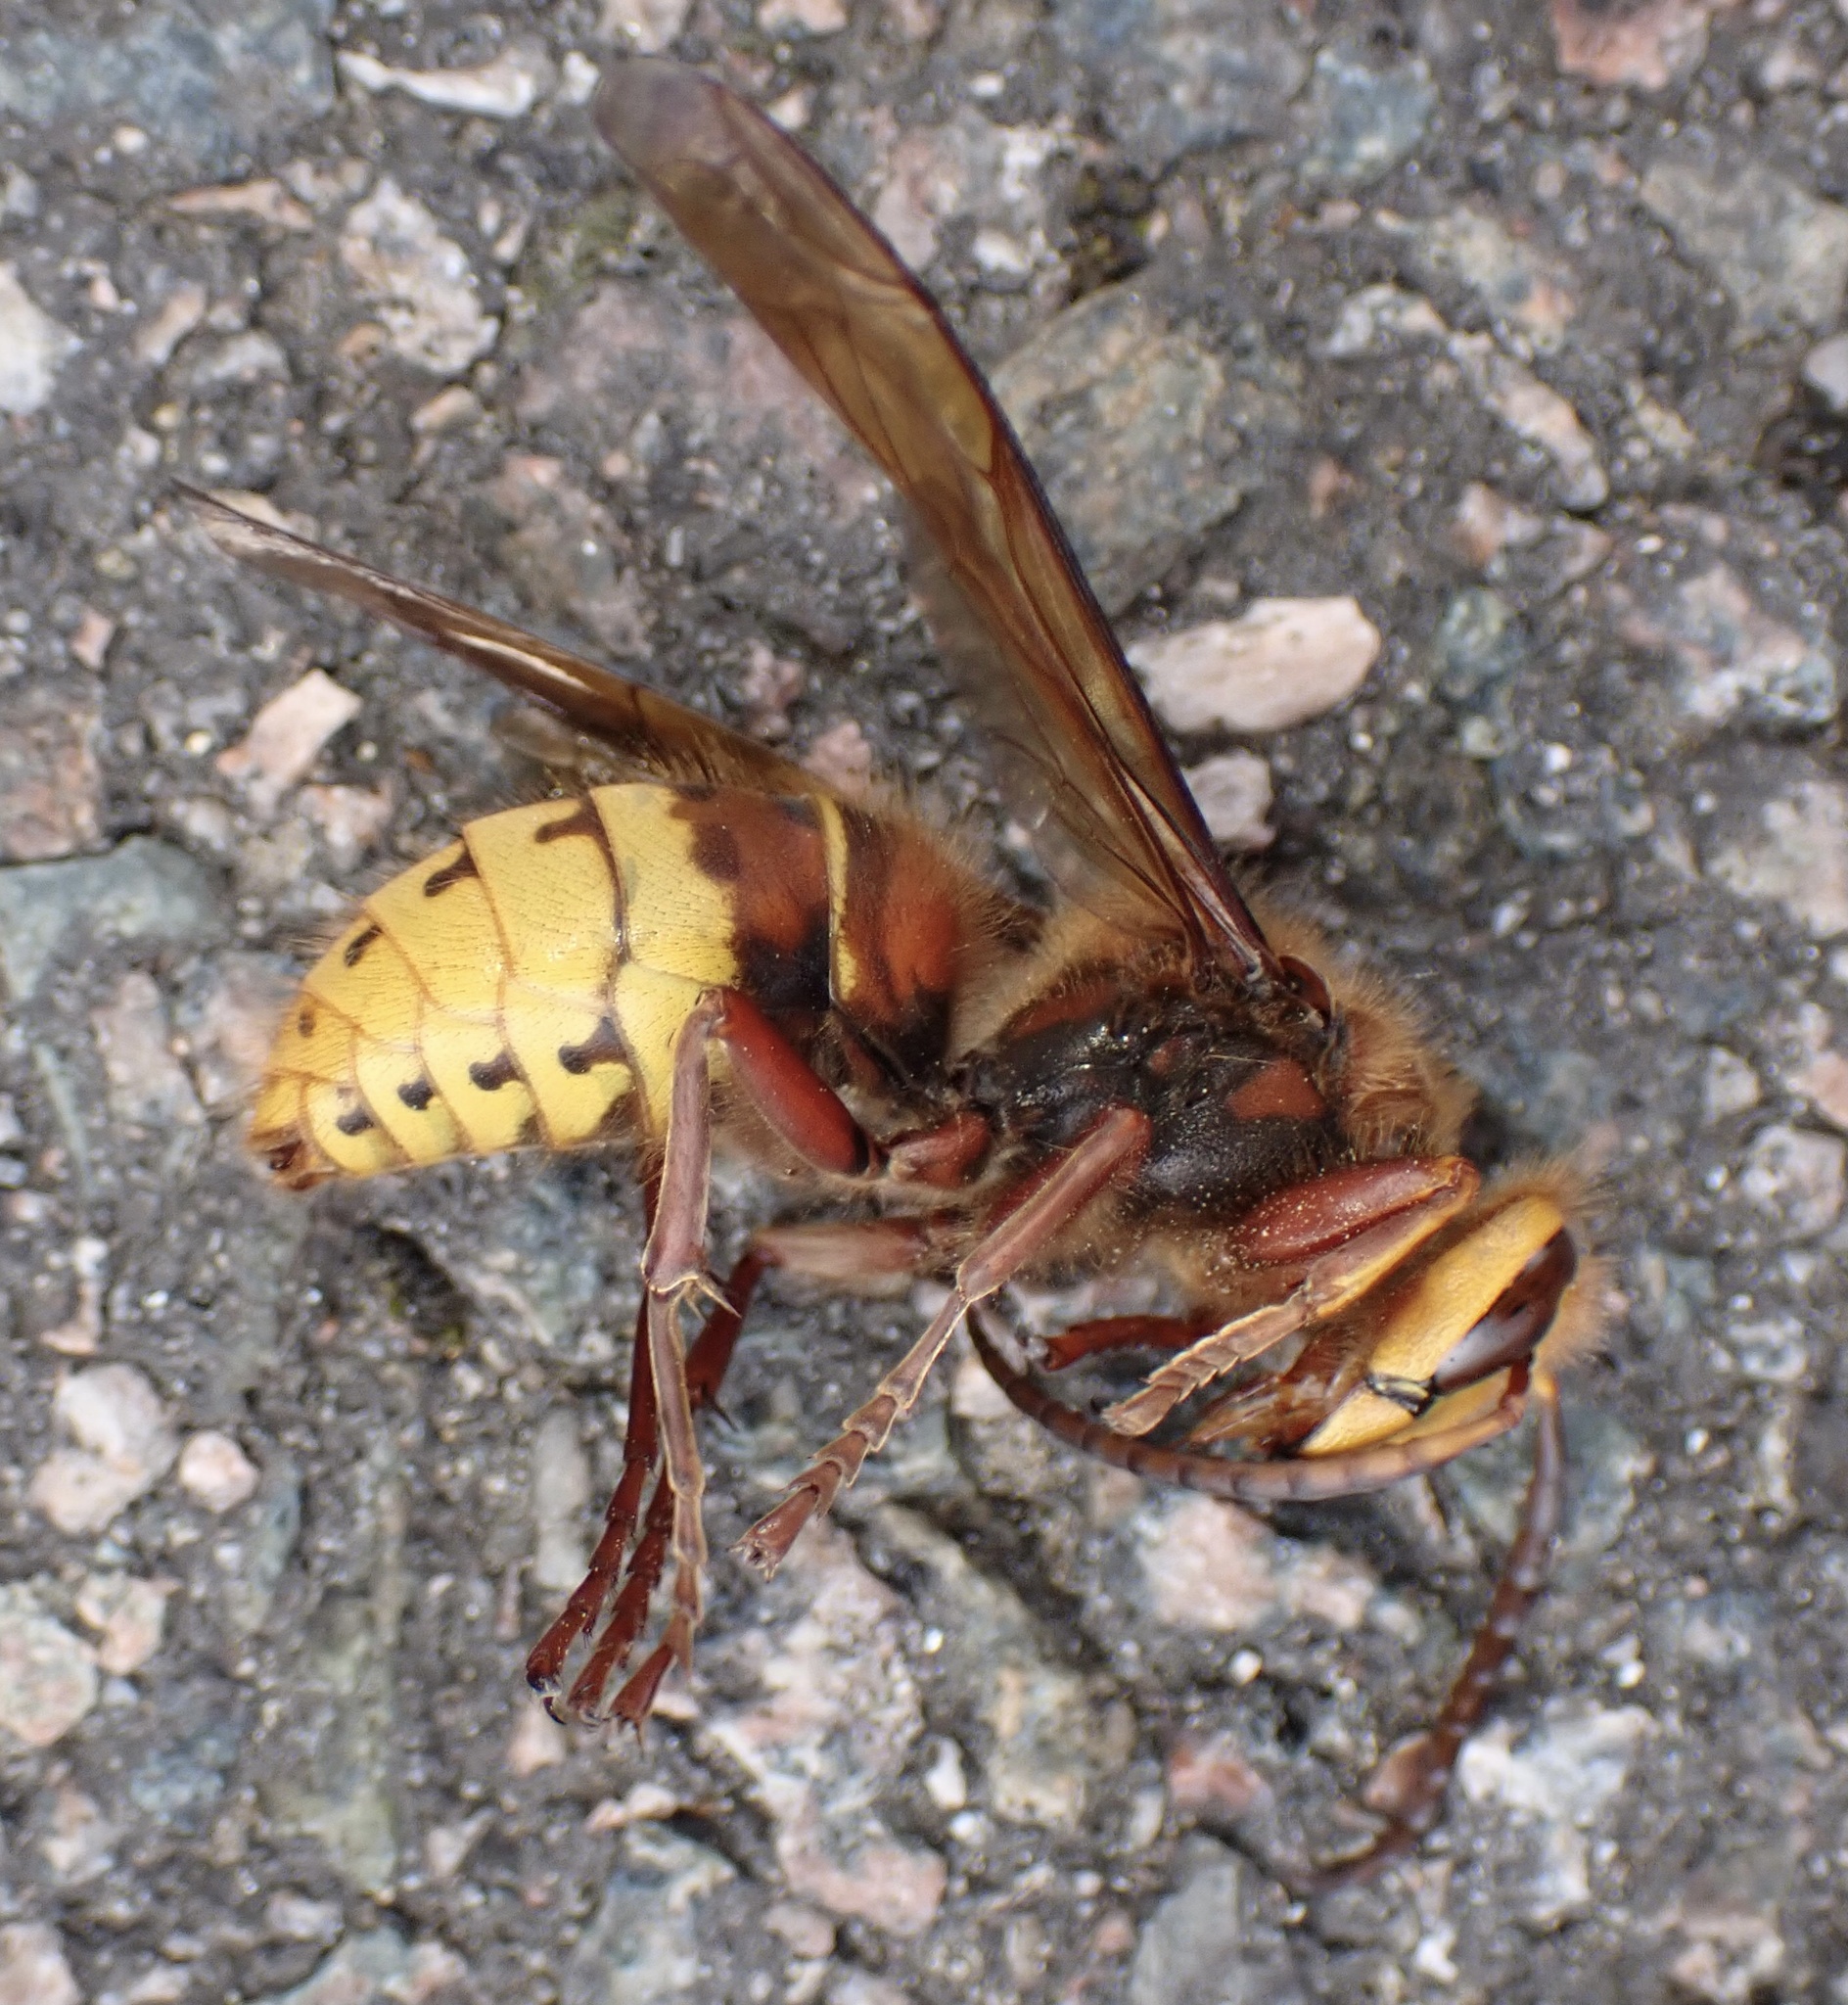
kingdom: Animalia
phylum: Arthropoda
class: Insecta
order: Hymenoptera
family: Vespidae
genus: Vespa
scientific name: Vespa crabro
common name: Hornet
